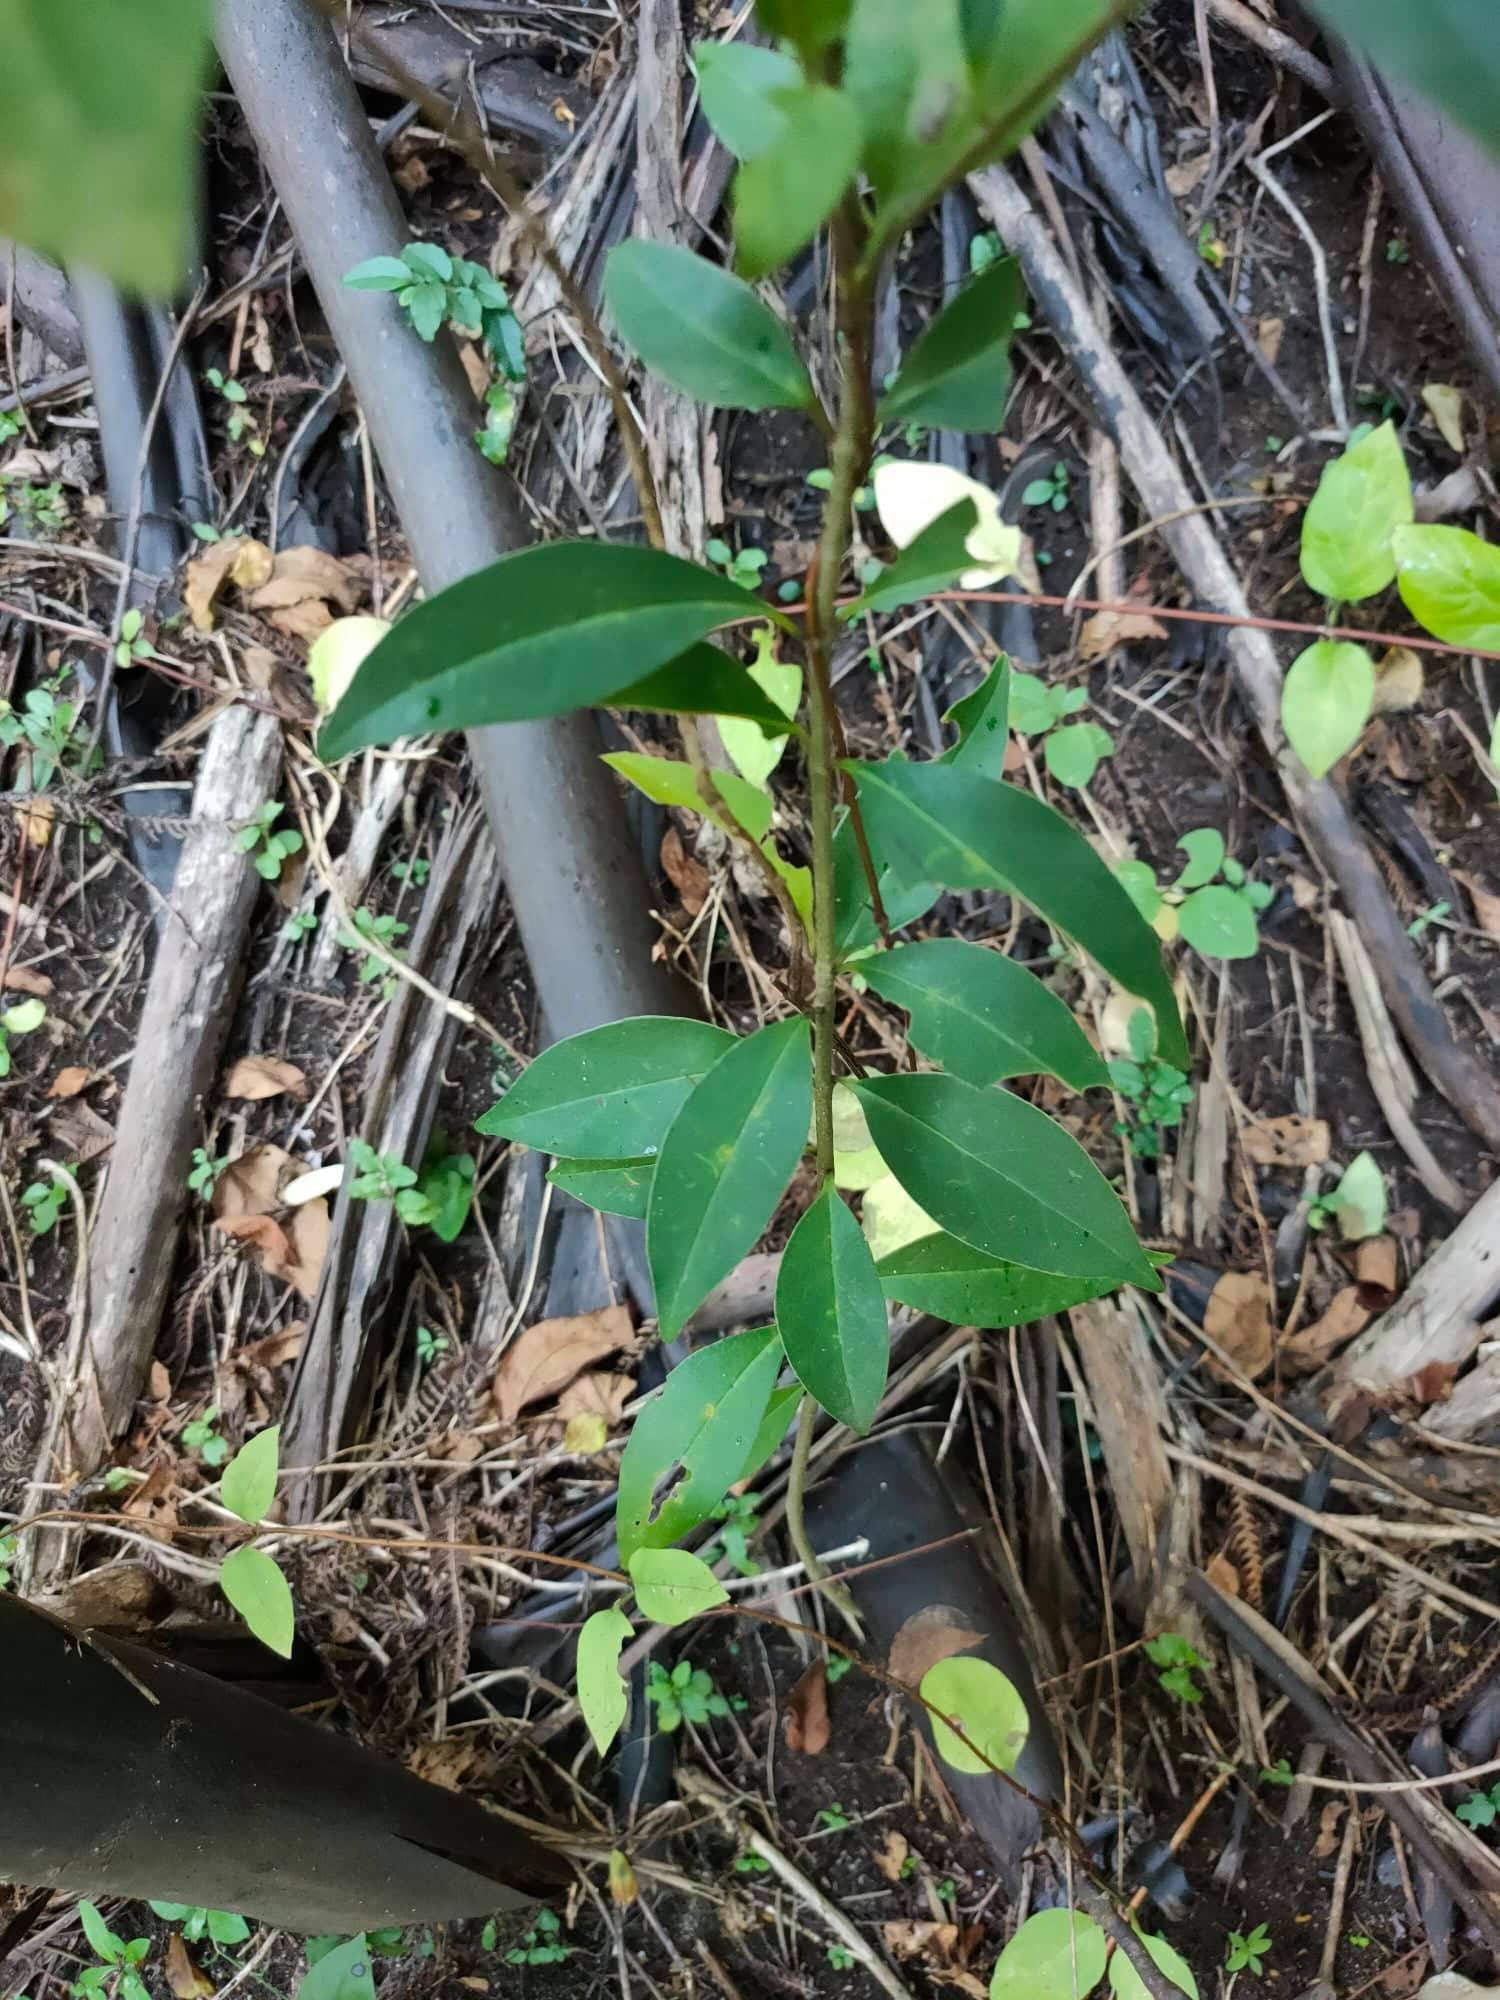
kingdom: Plantae
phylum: Tracheophyta
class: Magnoliopsida
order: Lamiales
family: Oleaceae
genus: Ligustrum
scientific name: Ligustrum lucidum
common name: Glossy privet
